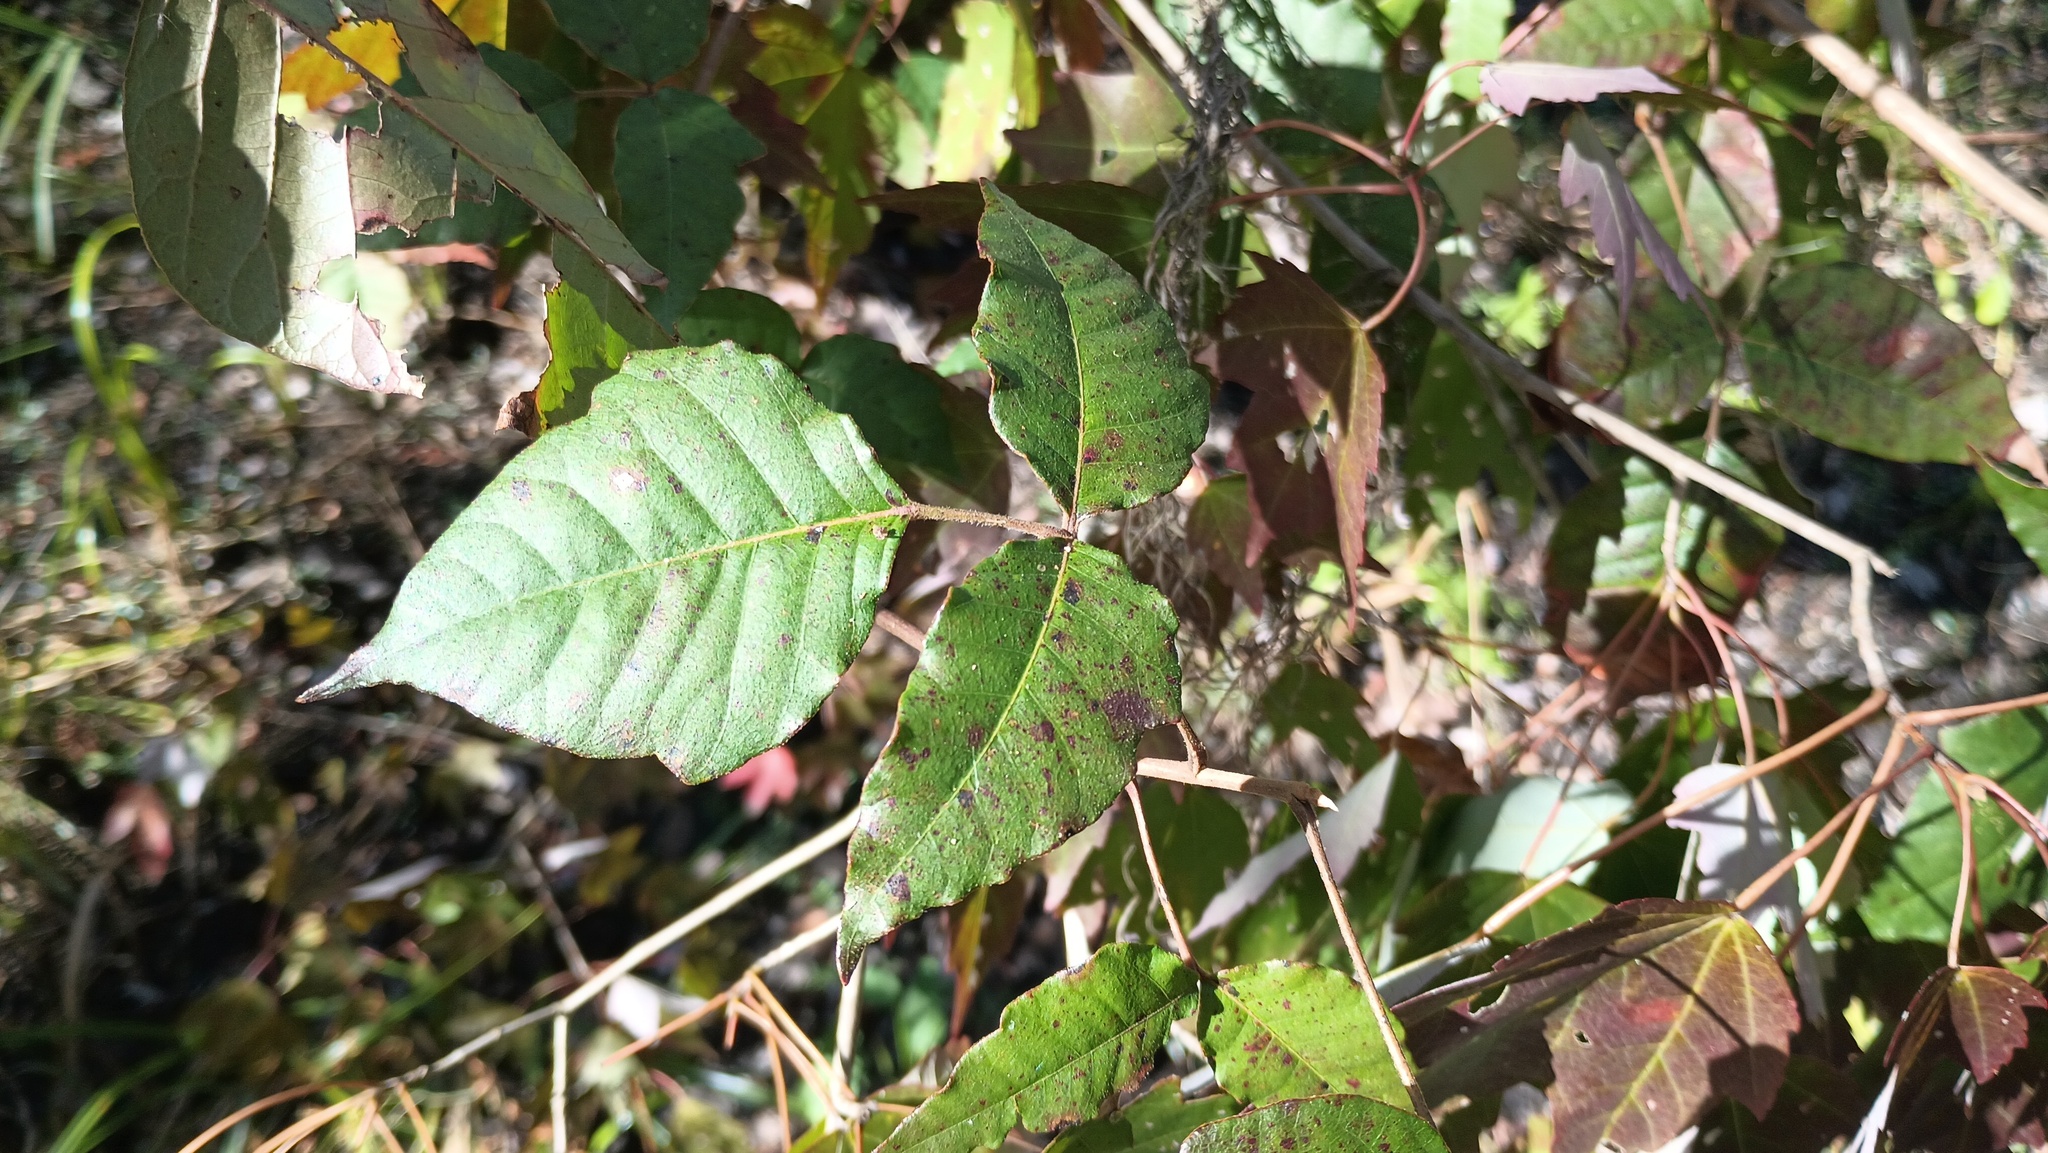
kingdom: Plantae
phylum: Tracheophyta
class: Magnoliopsida
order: Sapindales
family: Anacardiaceae
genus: Toxicodendron
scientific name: Toxicodendron radicans
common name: Poison ivy
